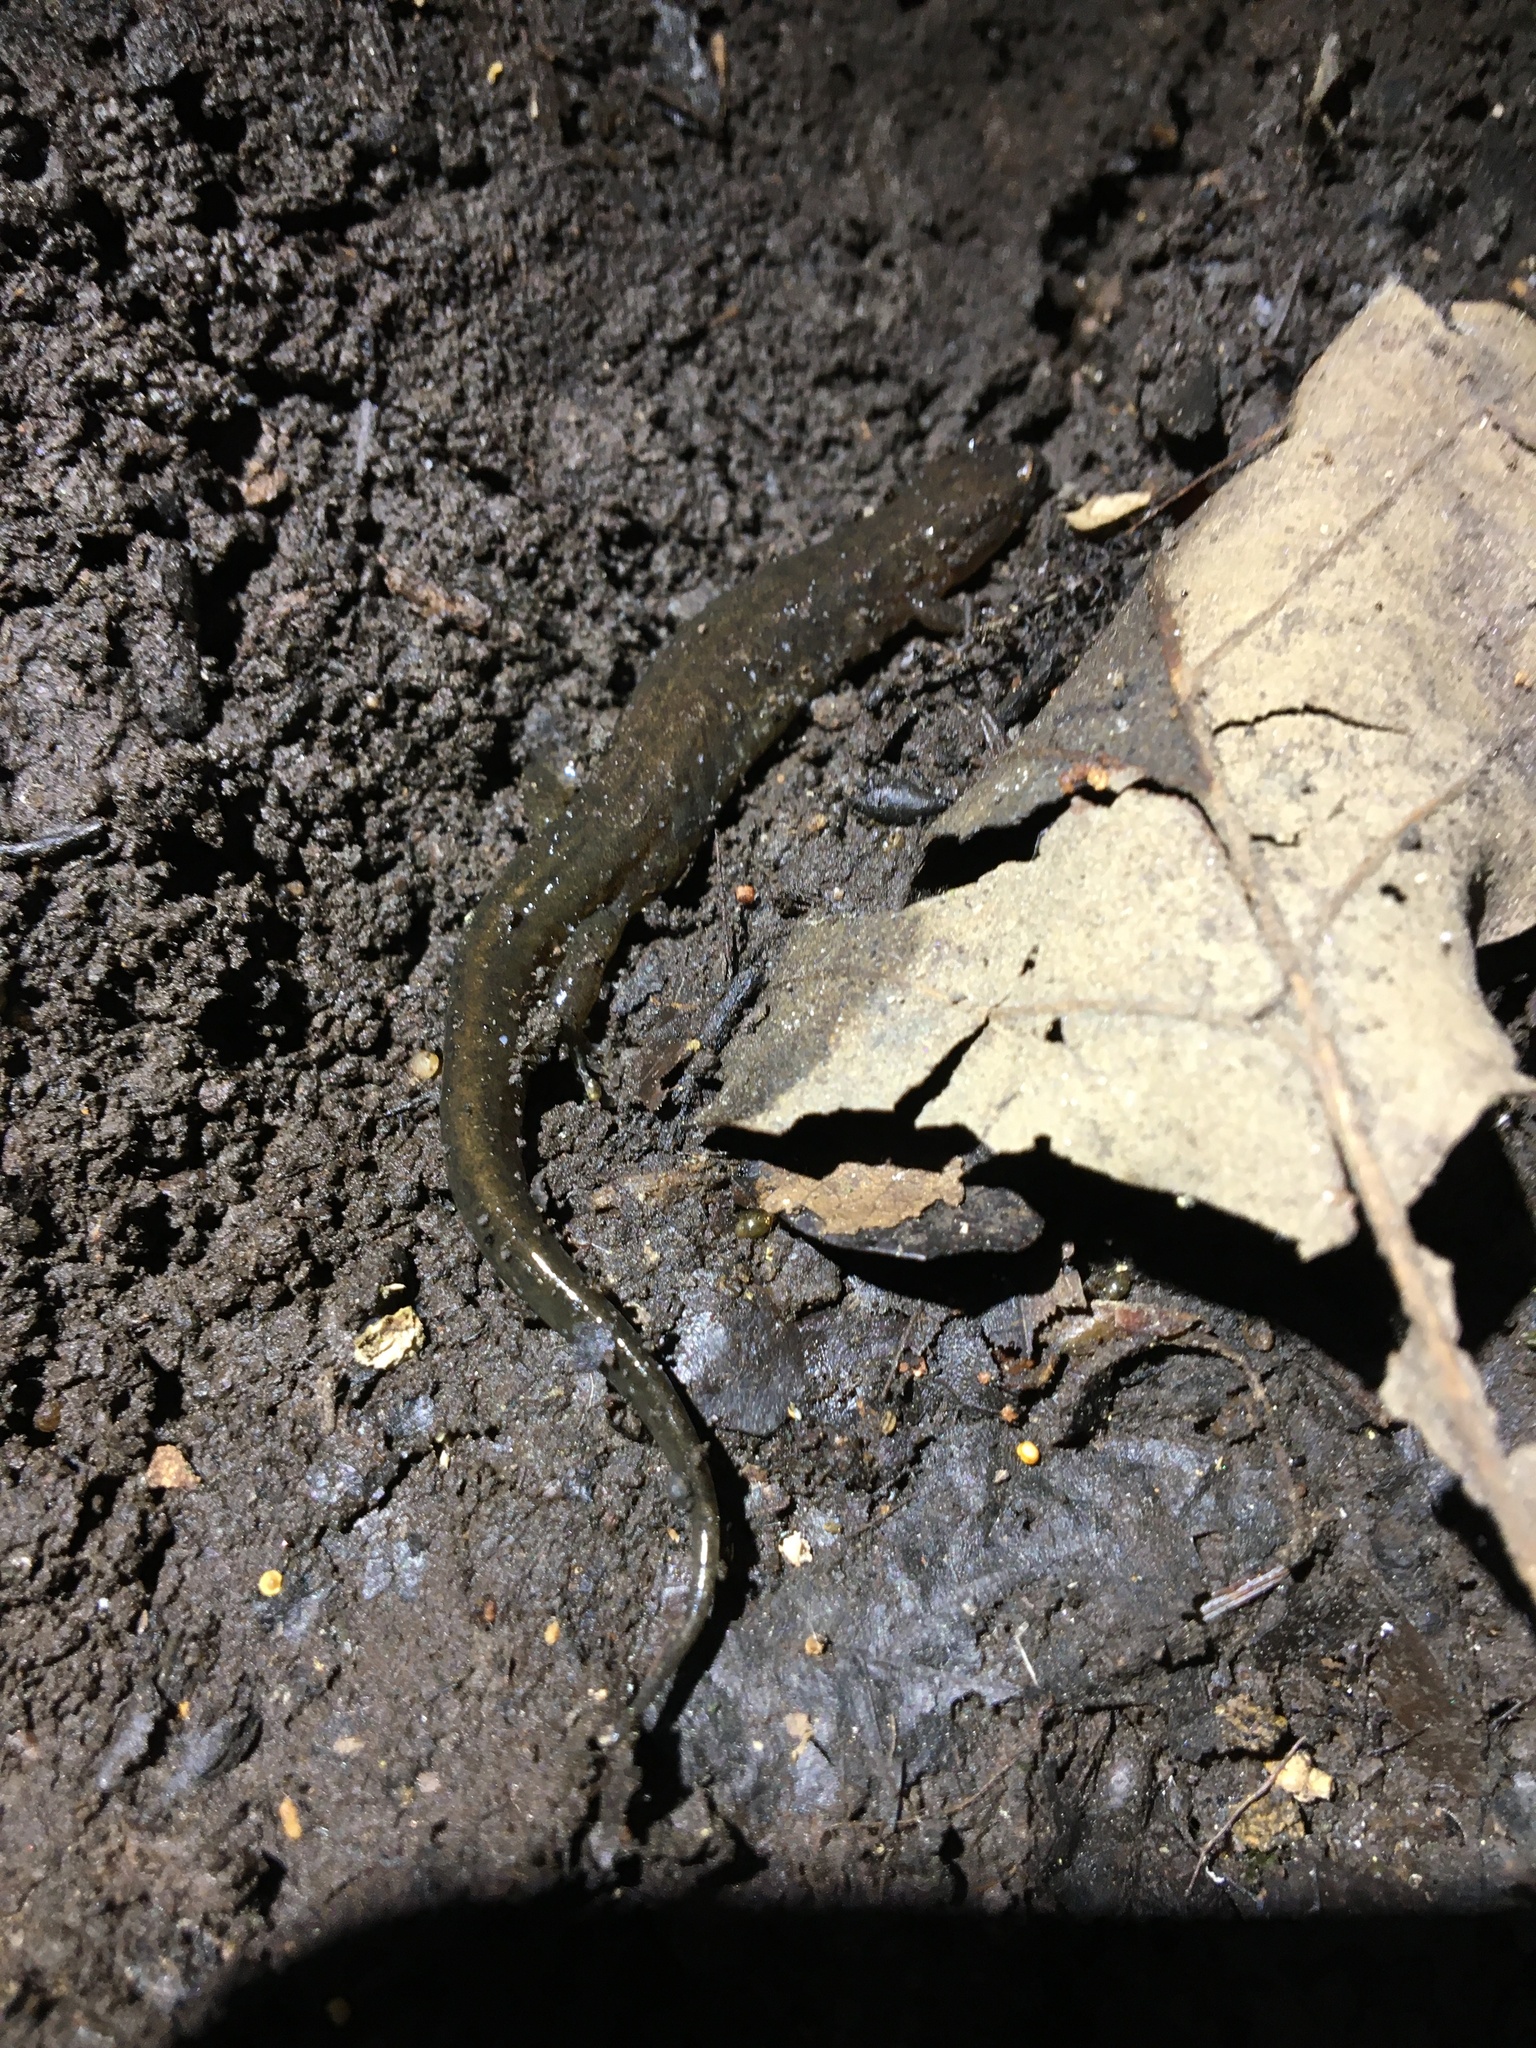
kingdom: Animalia
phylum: Chordata
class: Amphibia
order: Caudata
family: Plethodontidae
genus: Desmognathus
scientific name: Desmognathus fuscus
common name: Northern dusky salamander
